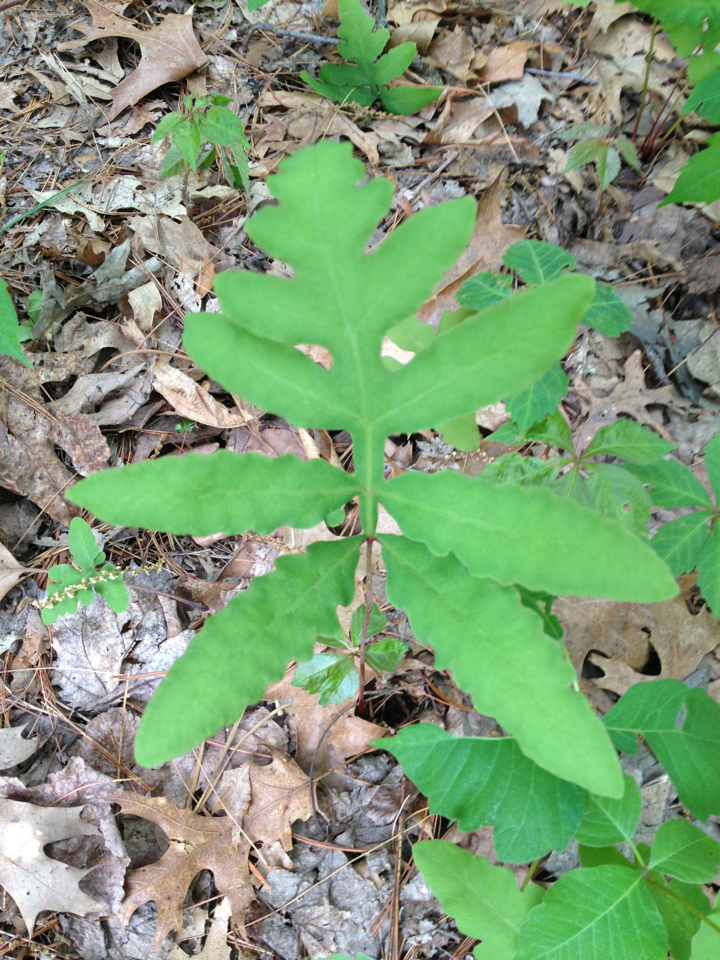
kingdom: Plantae
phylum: Tracheophyta
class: Polypodiopsida
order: Polypodiales
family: Onocleaceae
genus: Onoclea
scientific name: Onoclea sensibilis
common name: Sensitive fern
